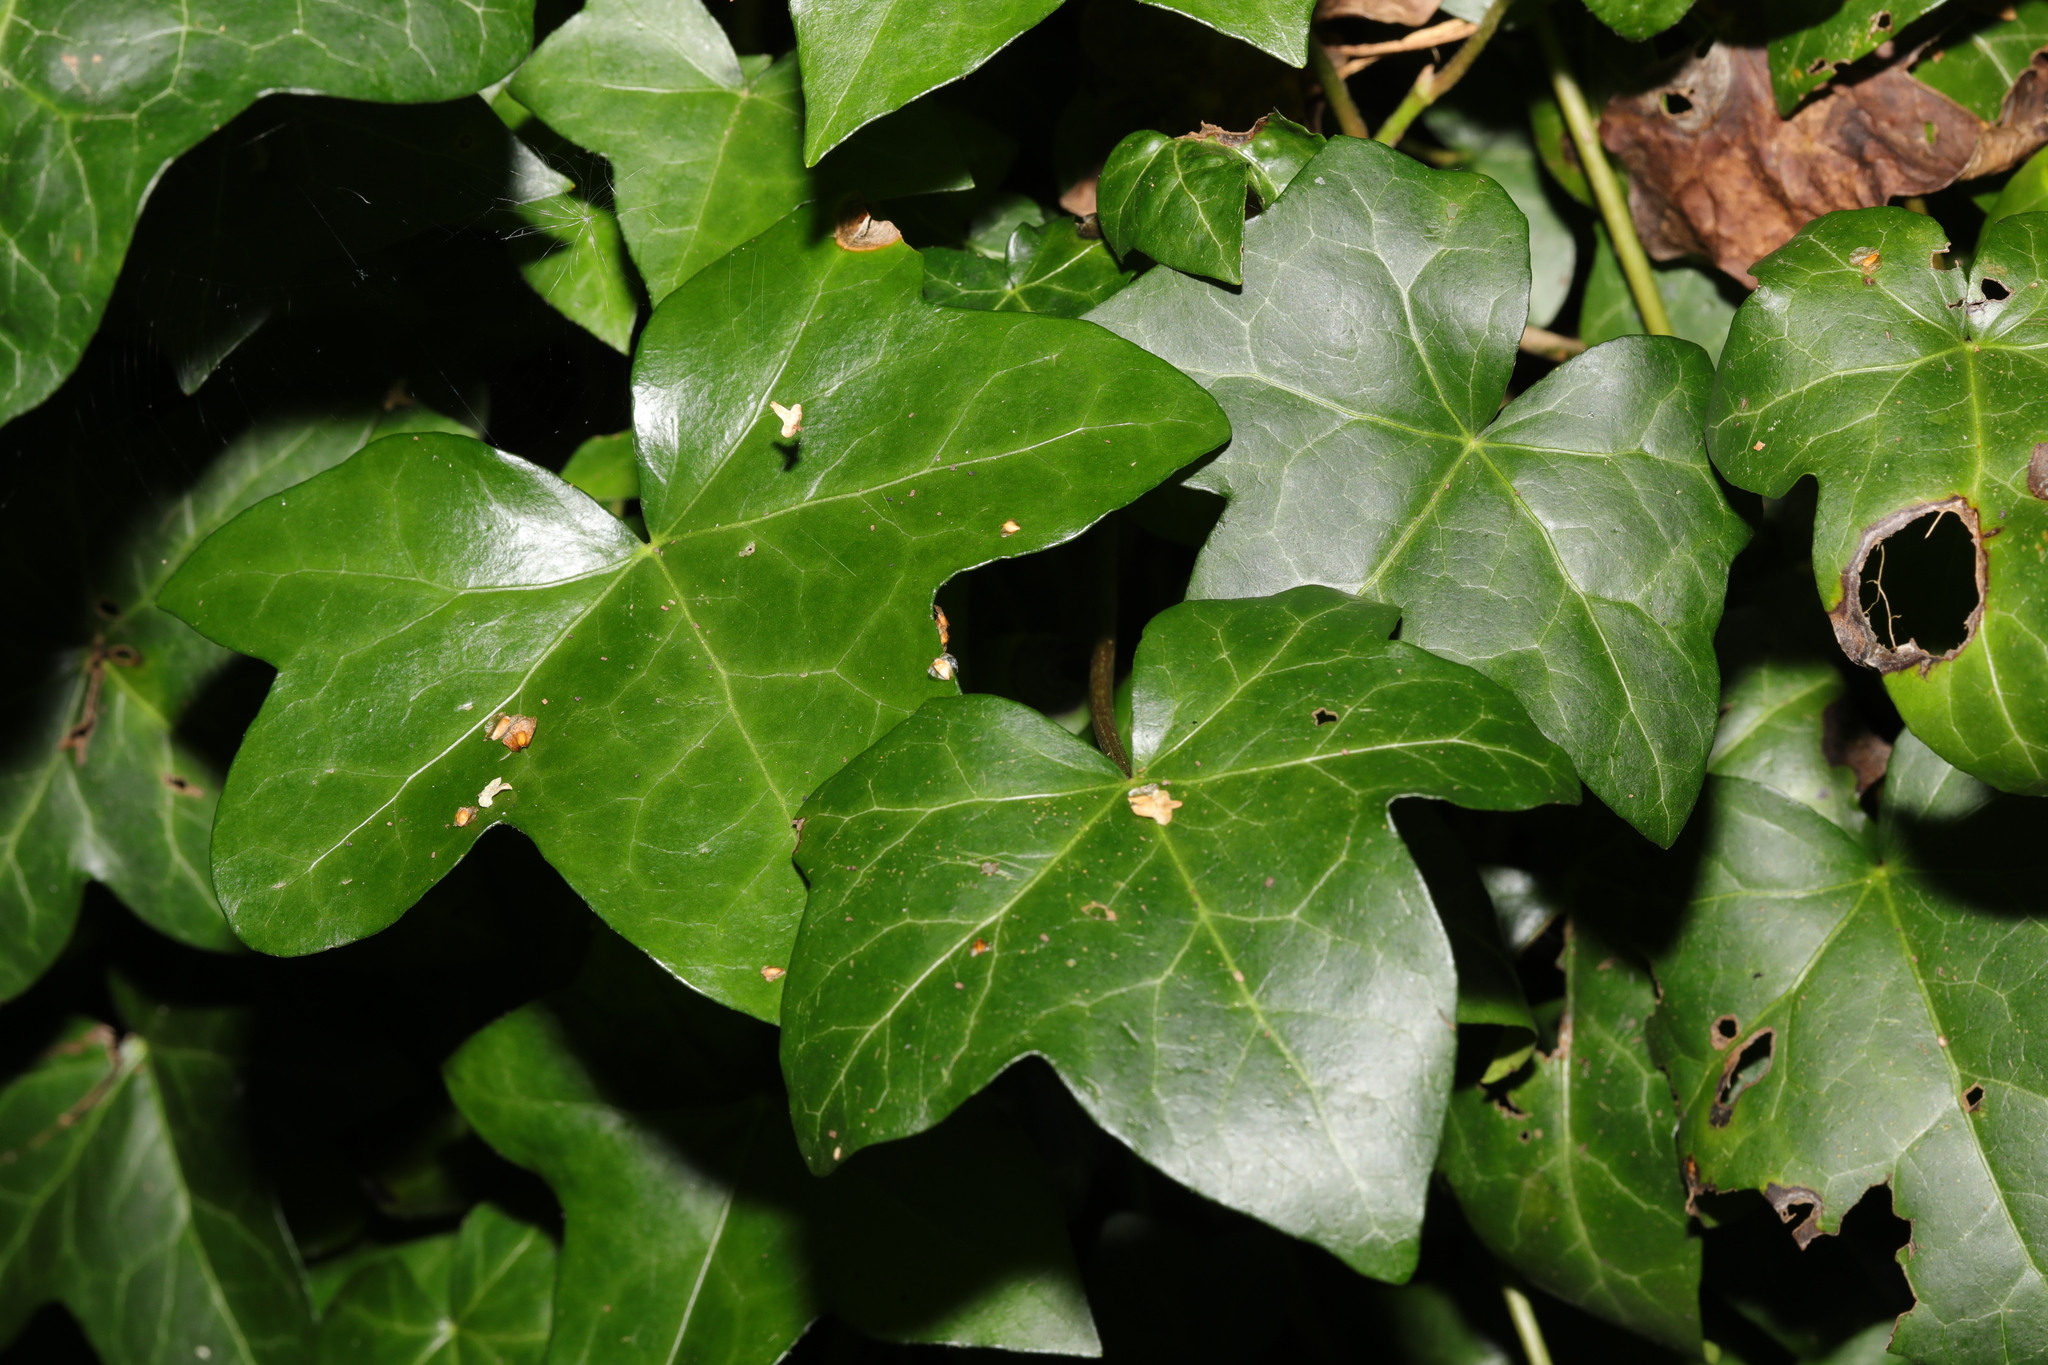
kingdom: Plantae
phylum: Tracheophyta
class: Magnoliopsida
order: Apiales
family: Araliaceae
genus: Hedera
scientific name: Hedera helix
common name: Ivy
